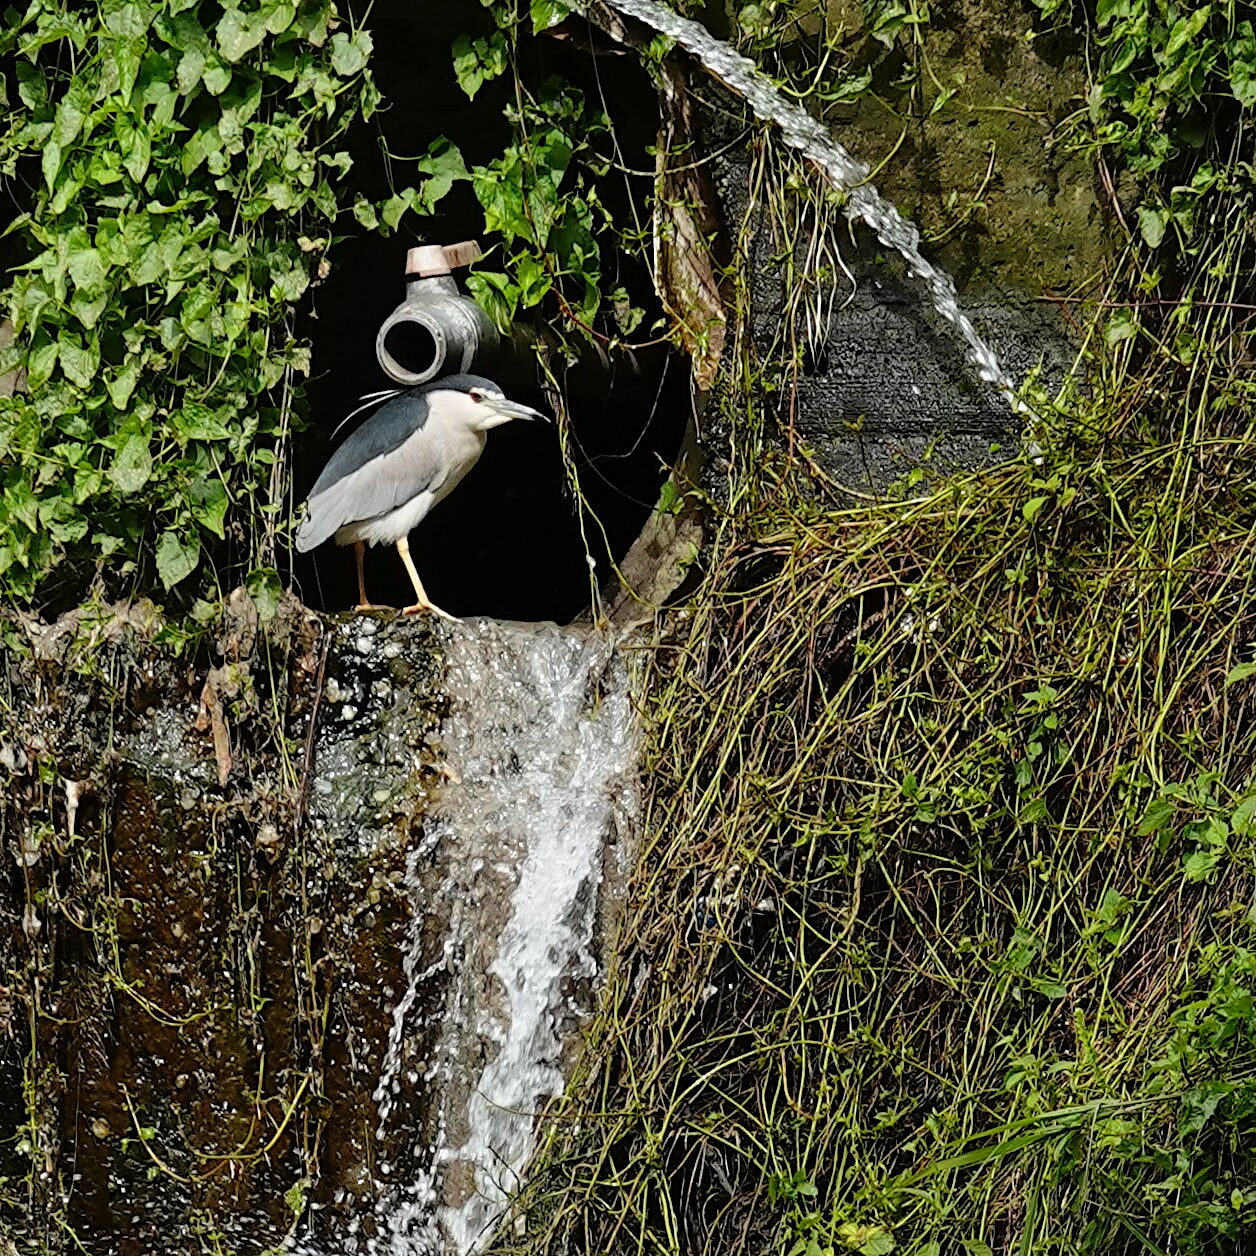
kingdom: Animalia
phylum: Chordata
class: Aves
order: Pelecaniformes
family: Ardeidae
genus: Nycticorax
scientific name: Nycticorax nycticorax
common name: Black-crowned night heron
